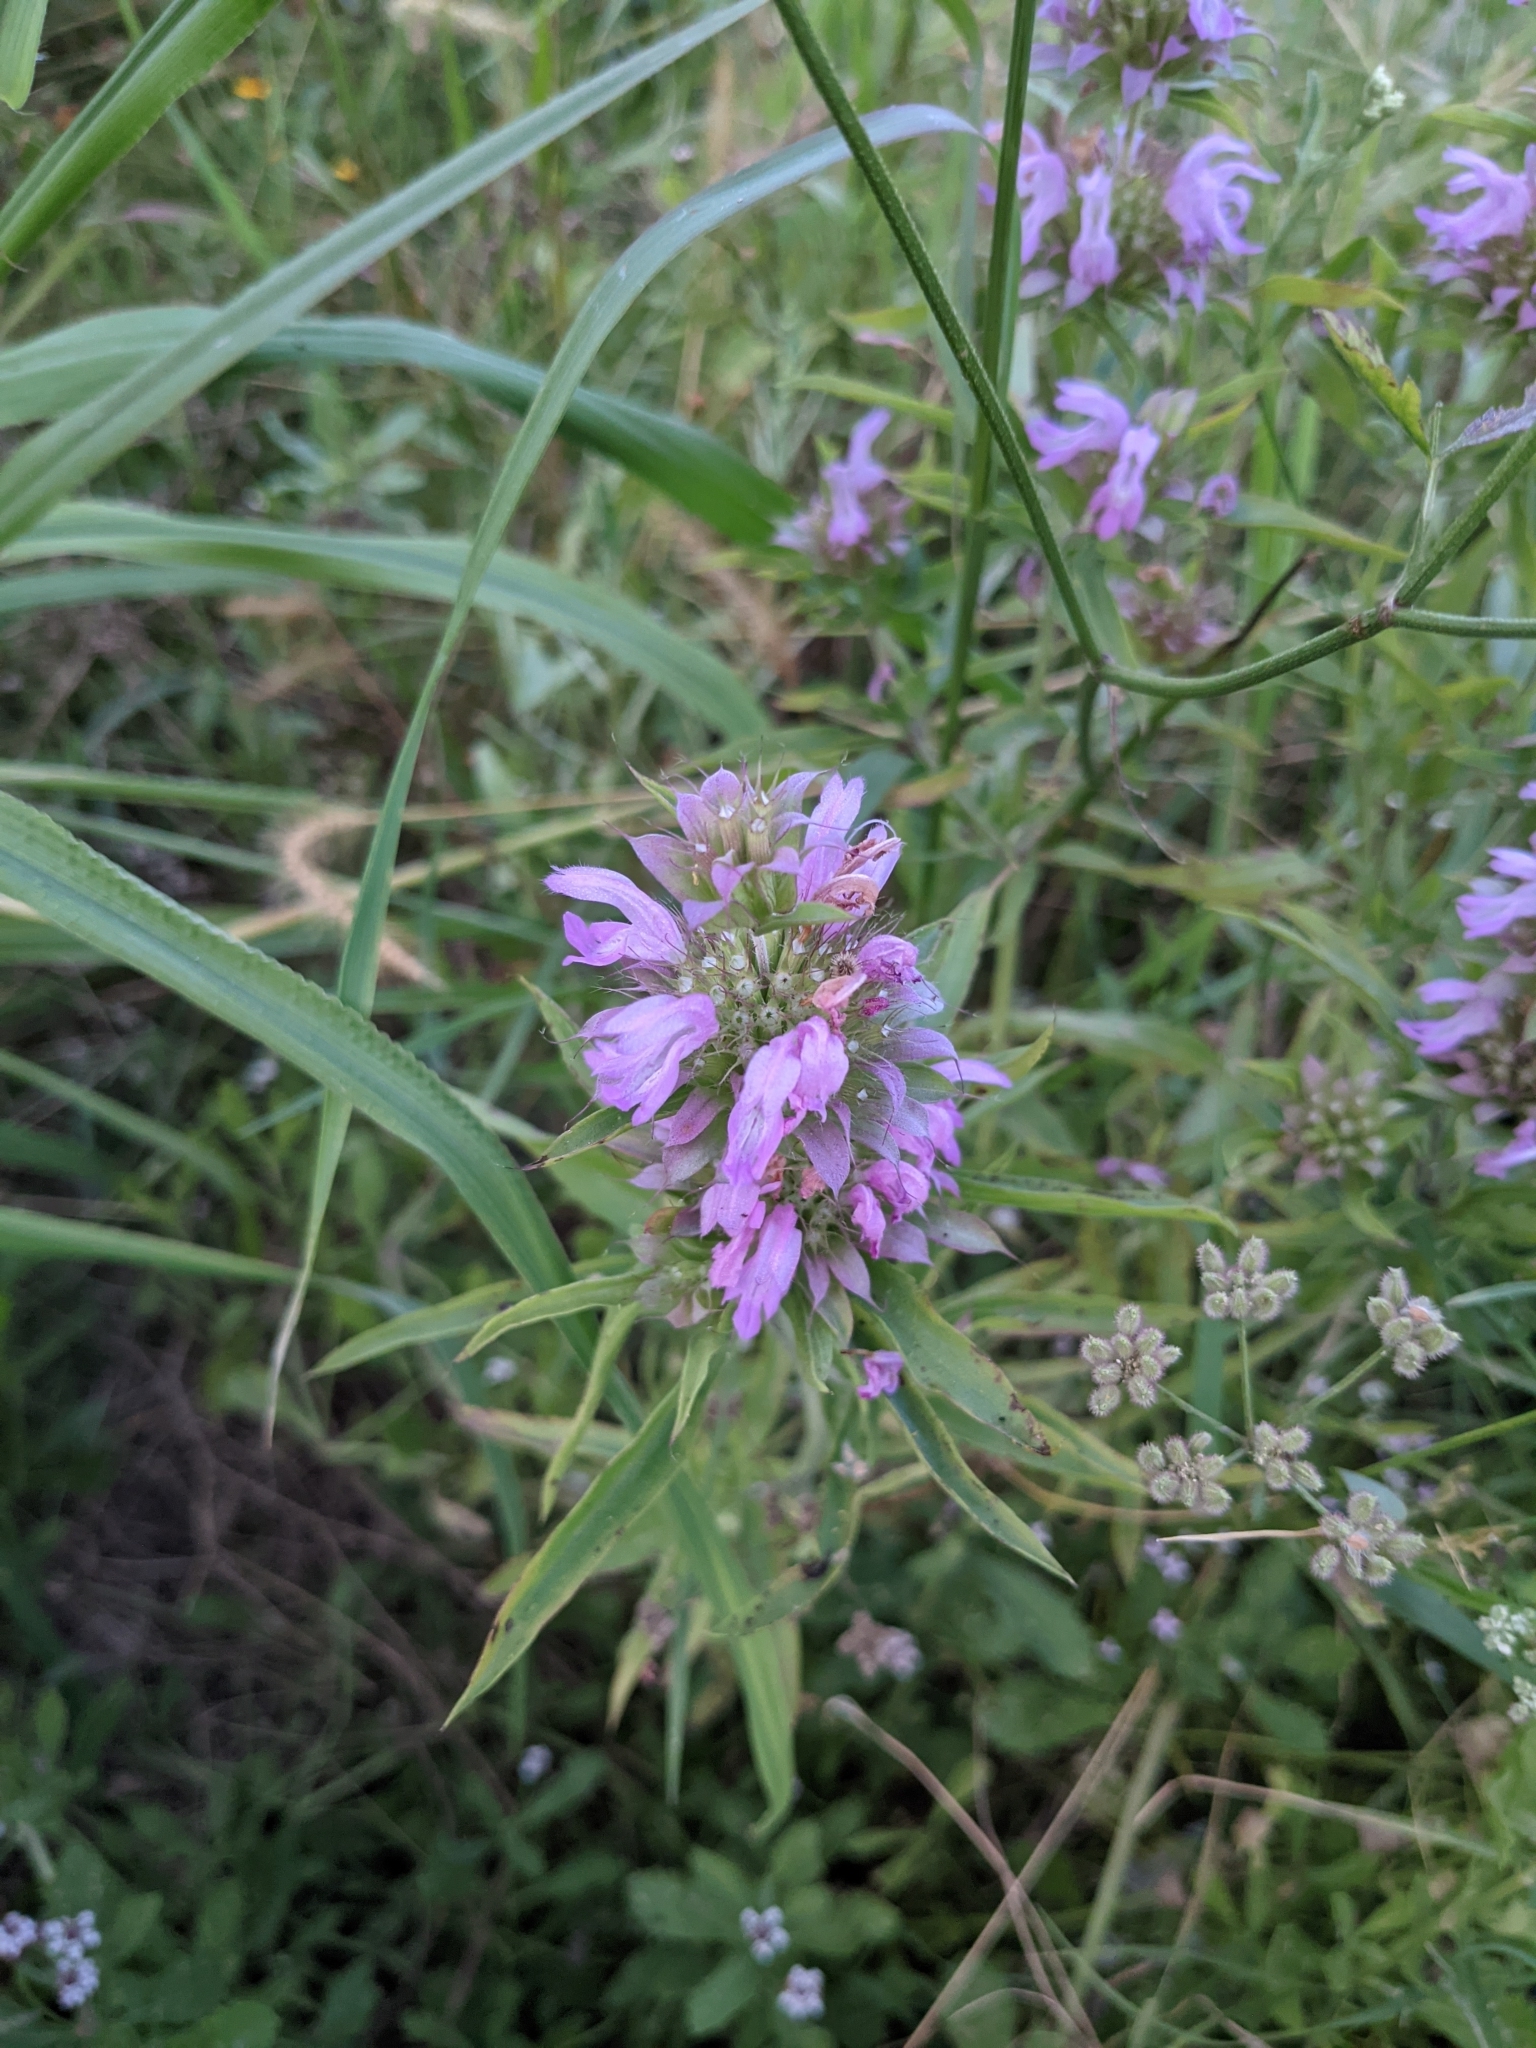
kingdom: Plantae
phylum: Tracheophyta
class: Magnoliopsida
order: Lamiales
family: Lamiaceae
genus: Monarda
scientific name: Monarda citriodora
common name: Lemon beebalm
